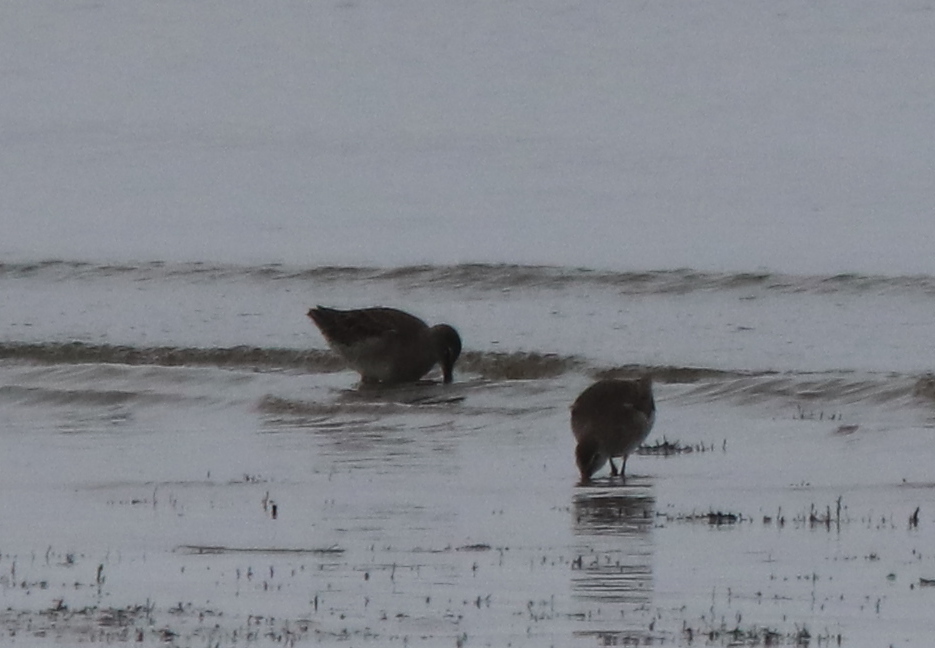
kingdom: Animalia
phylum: Chordata
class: Aves
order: Charadriiformes
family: Scolopacidae
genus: Limnodromus
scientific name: Limnodromus griseus
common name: Short-billed dowitcher
